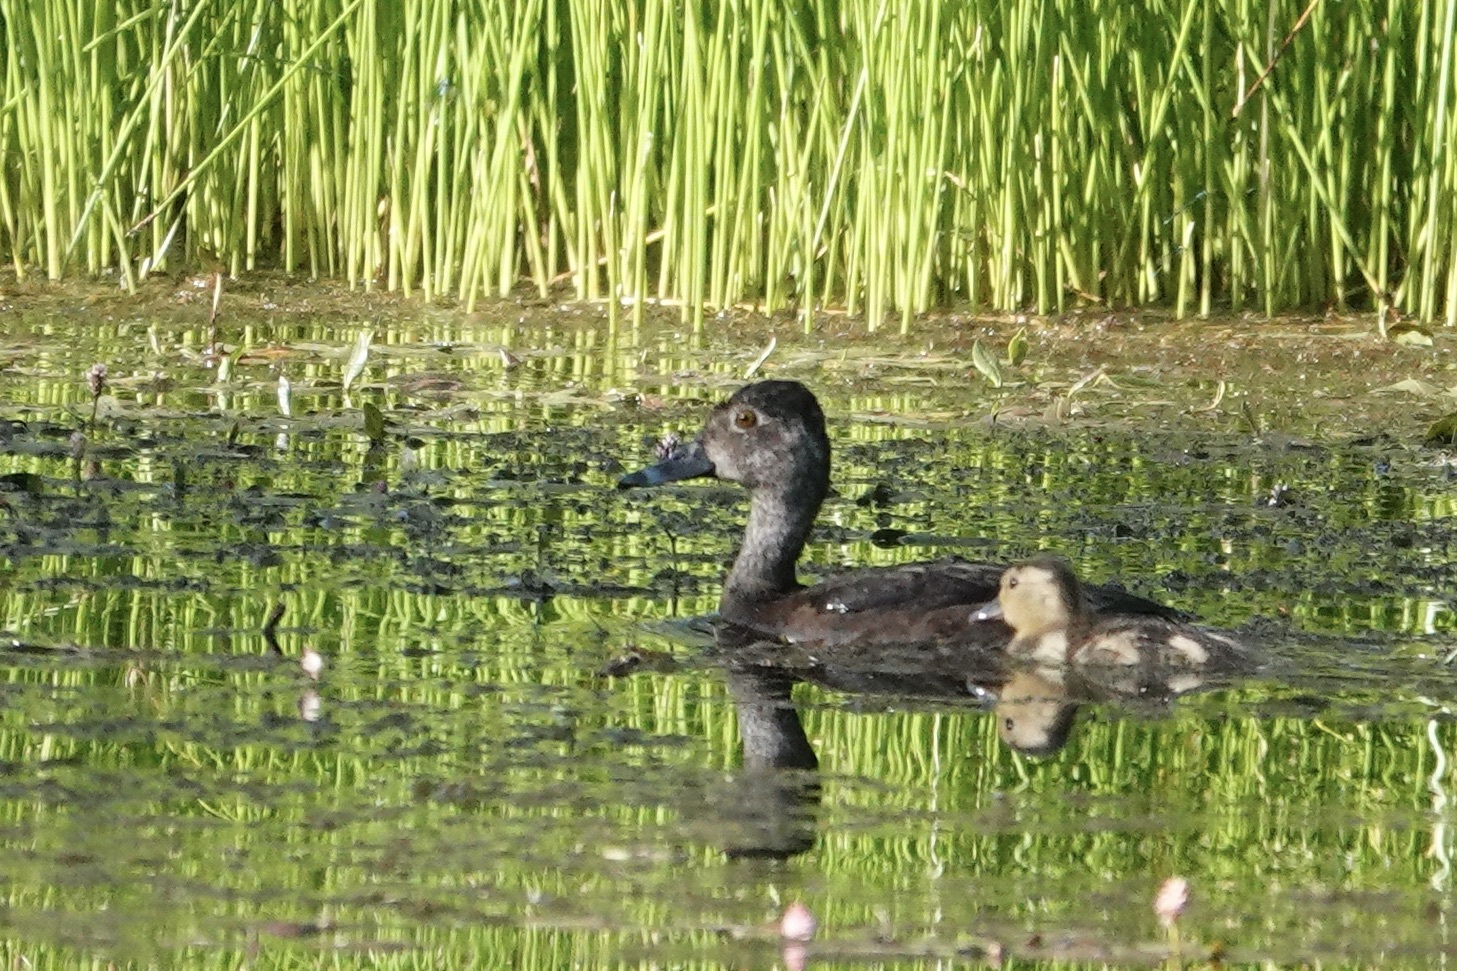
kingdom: Animalia
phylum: Chordata
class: Aves
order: Anseriformes
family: Anatidae
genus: Aythya
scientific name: Aythya americana
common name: Redhead
